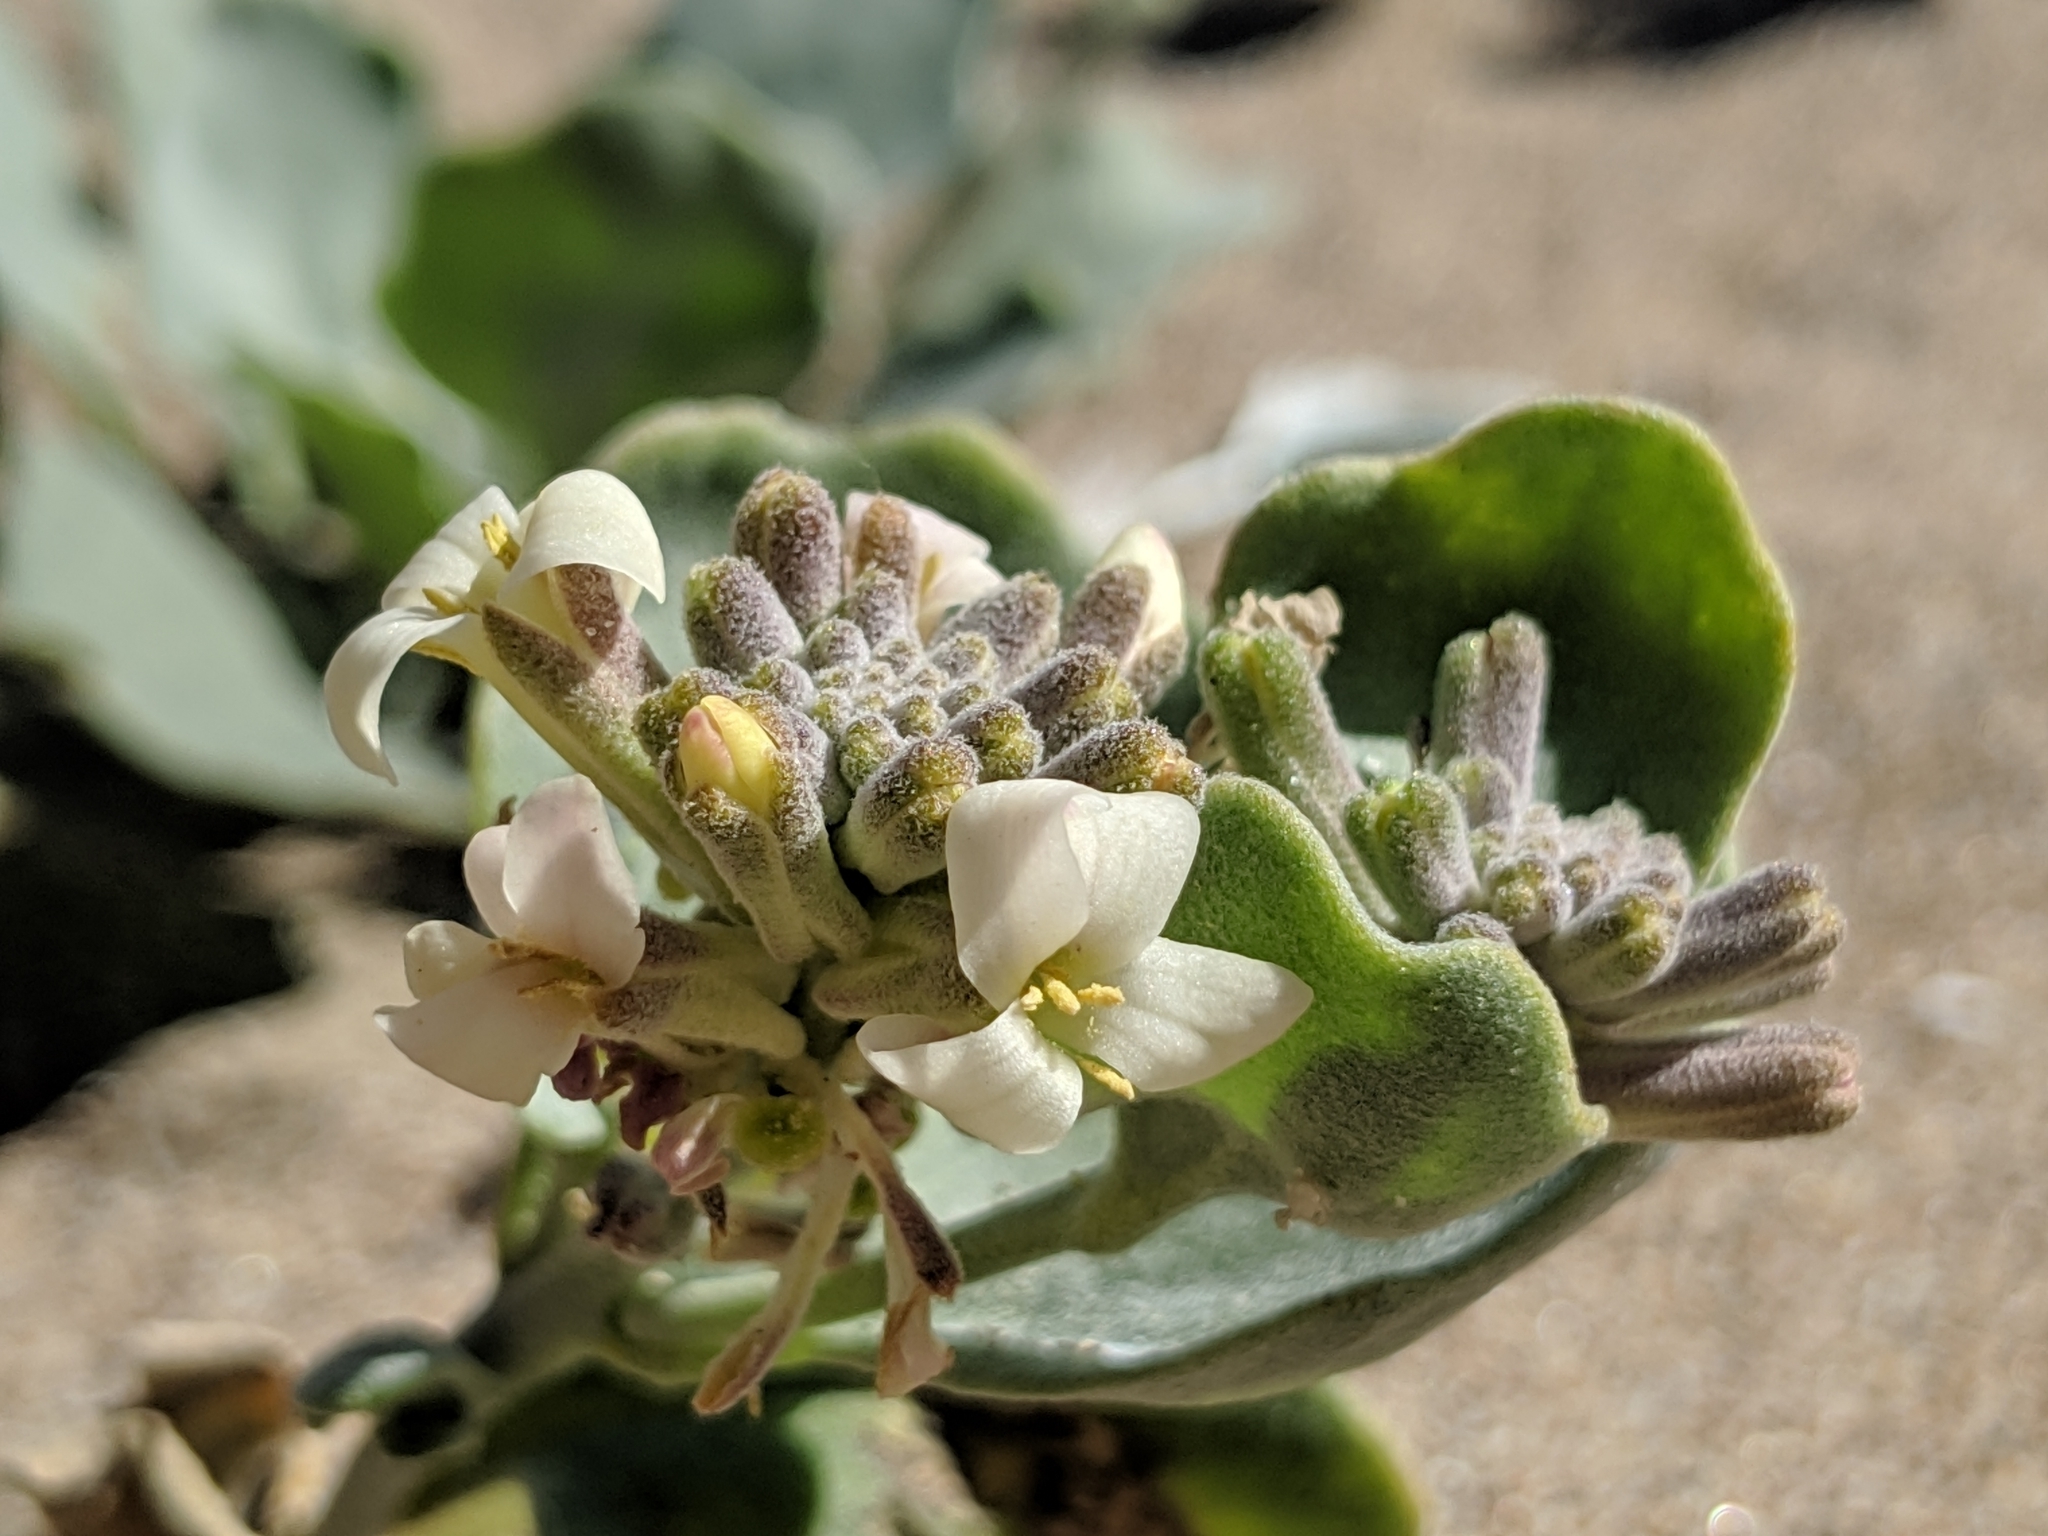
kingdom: Plantae
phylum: Tracheophyta
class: Magnoliopsida
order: Brassicales
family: Brassicaceae
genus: Dithyrea
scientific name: Dithyrea maritima
